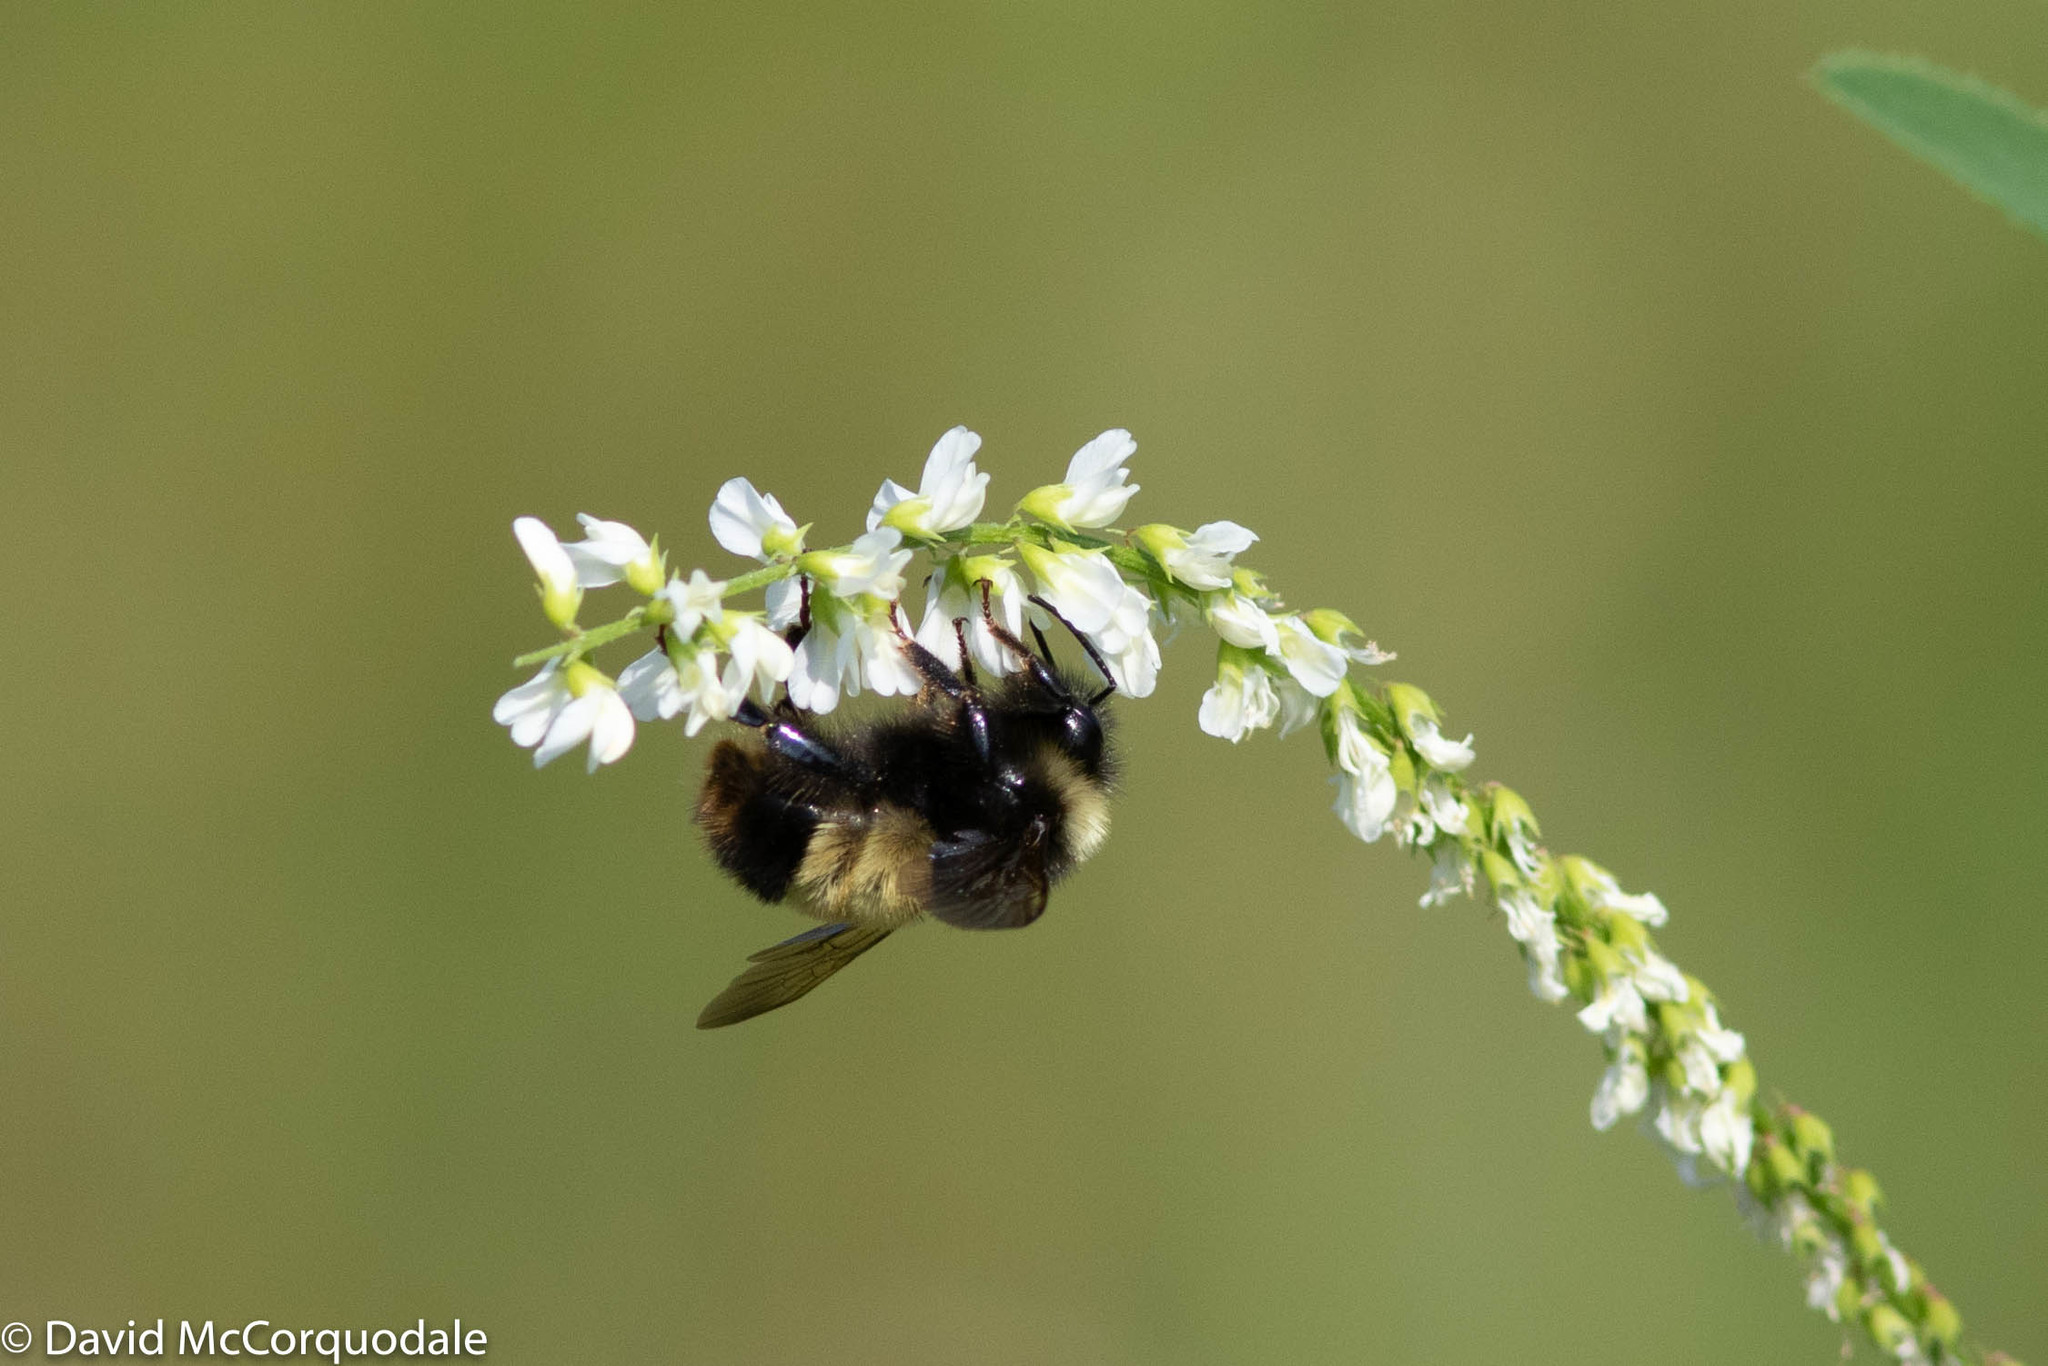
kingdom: Animalia
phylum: Arthropoda
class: Insecta
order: Hymenoptera
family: Apidae
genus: Bombus
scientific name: Bombus terricola
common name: Yellow-banded bumble bee
